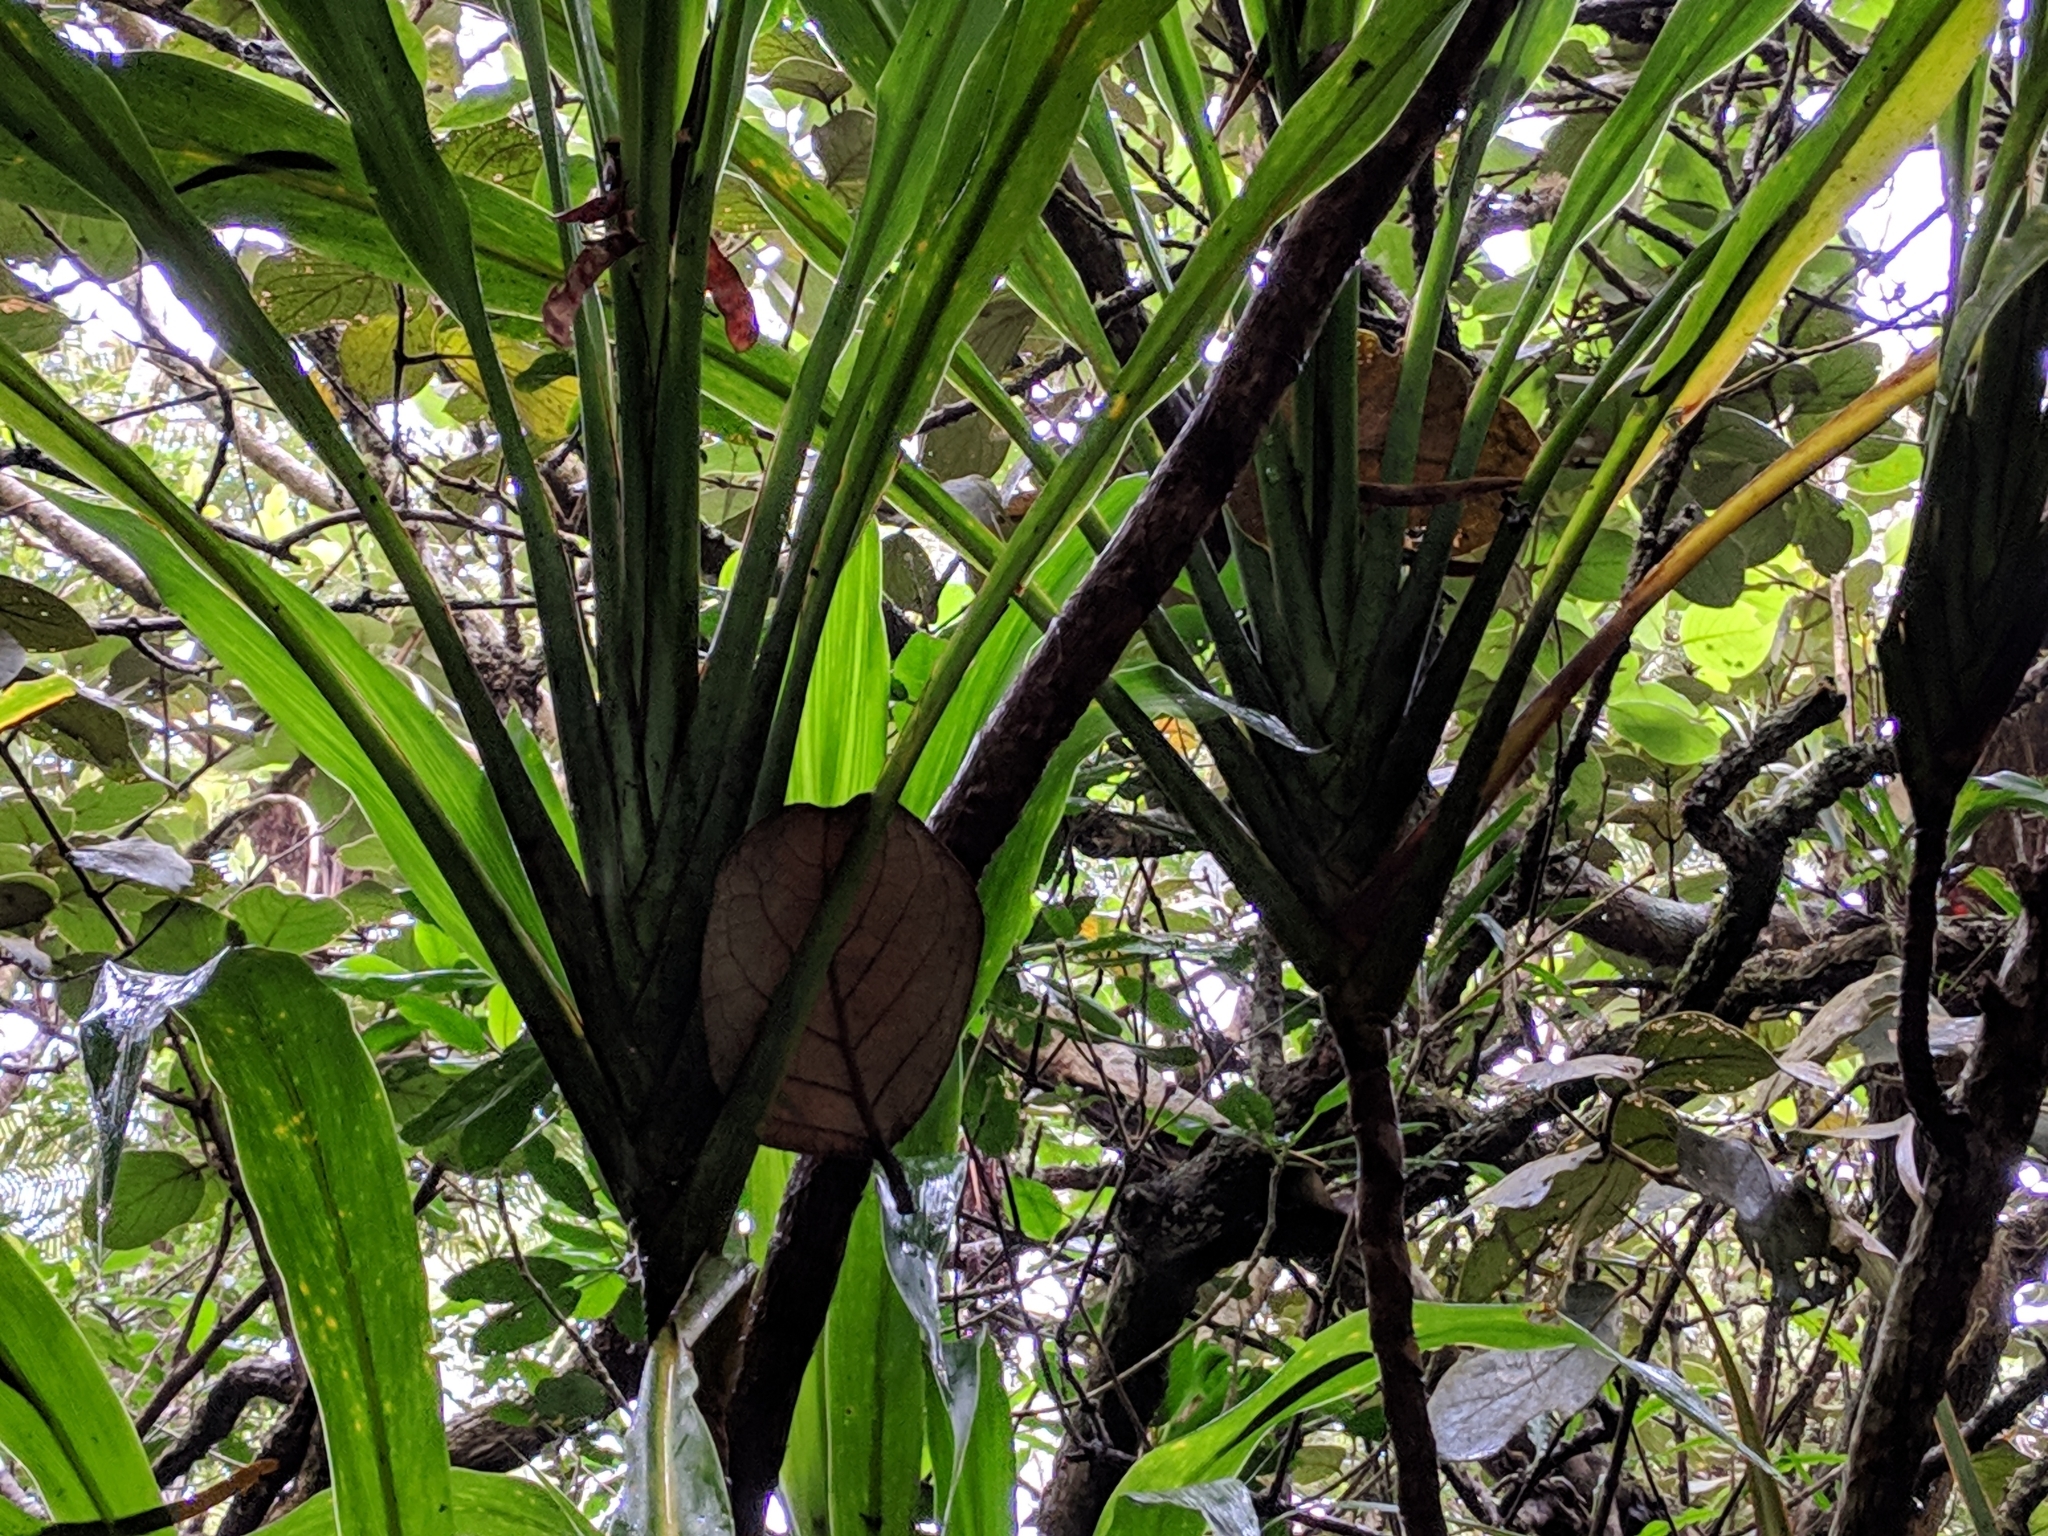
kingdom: Plantae
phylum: Tracheophyta
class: Liliopsida
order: Asparagales
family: Asparagaceae
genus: Cordyline
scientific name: Cordyline mauritiana
